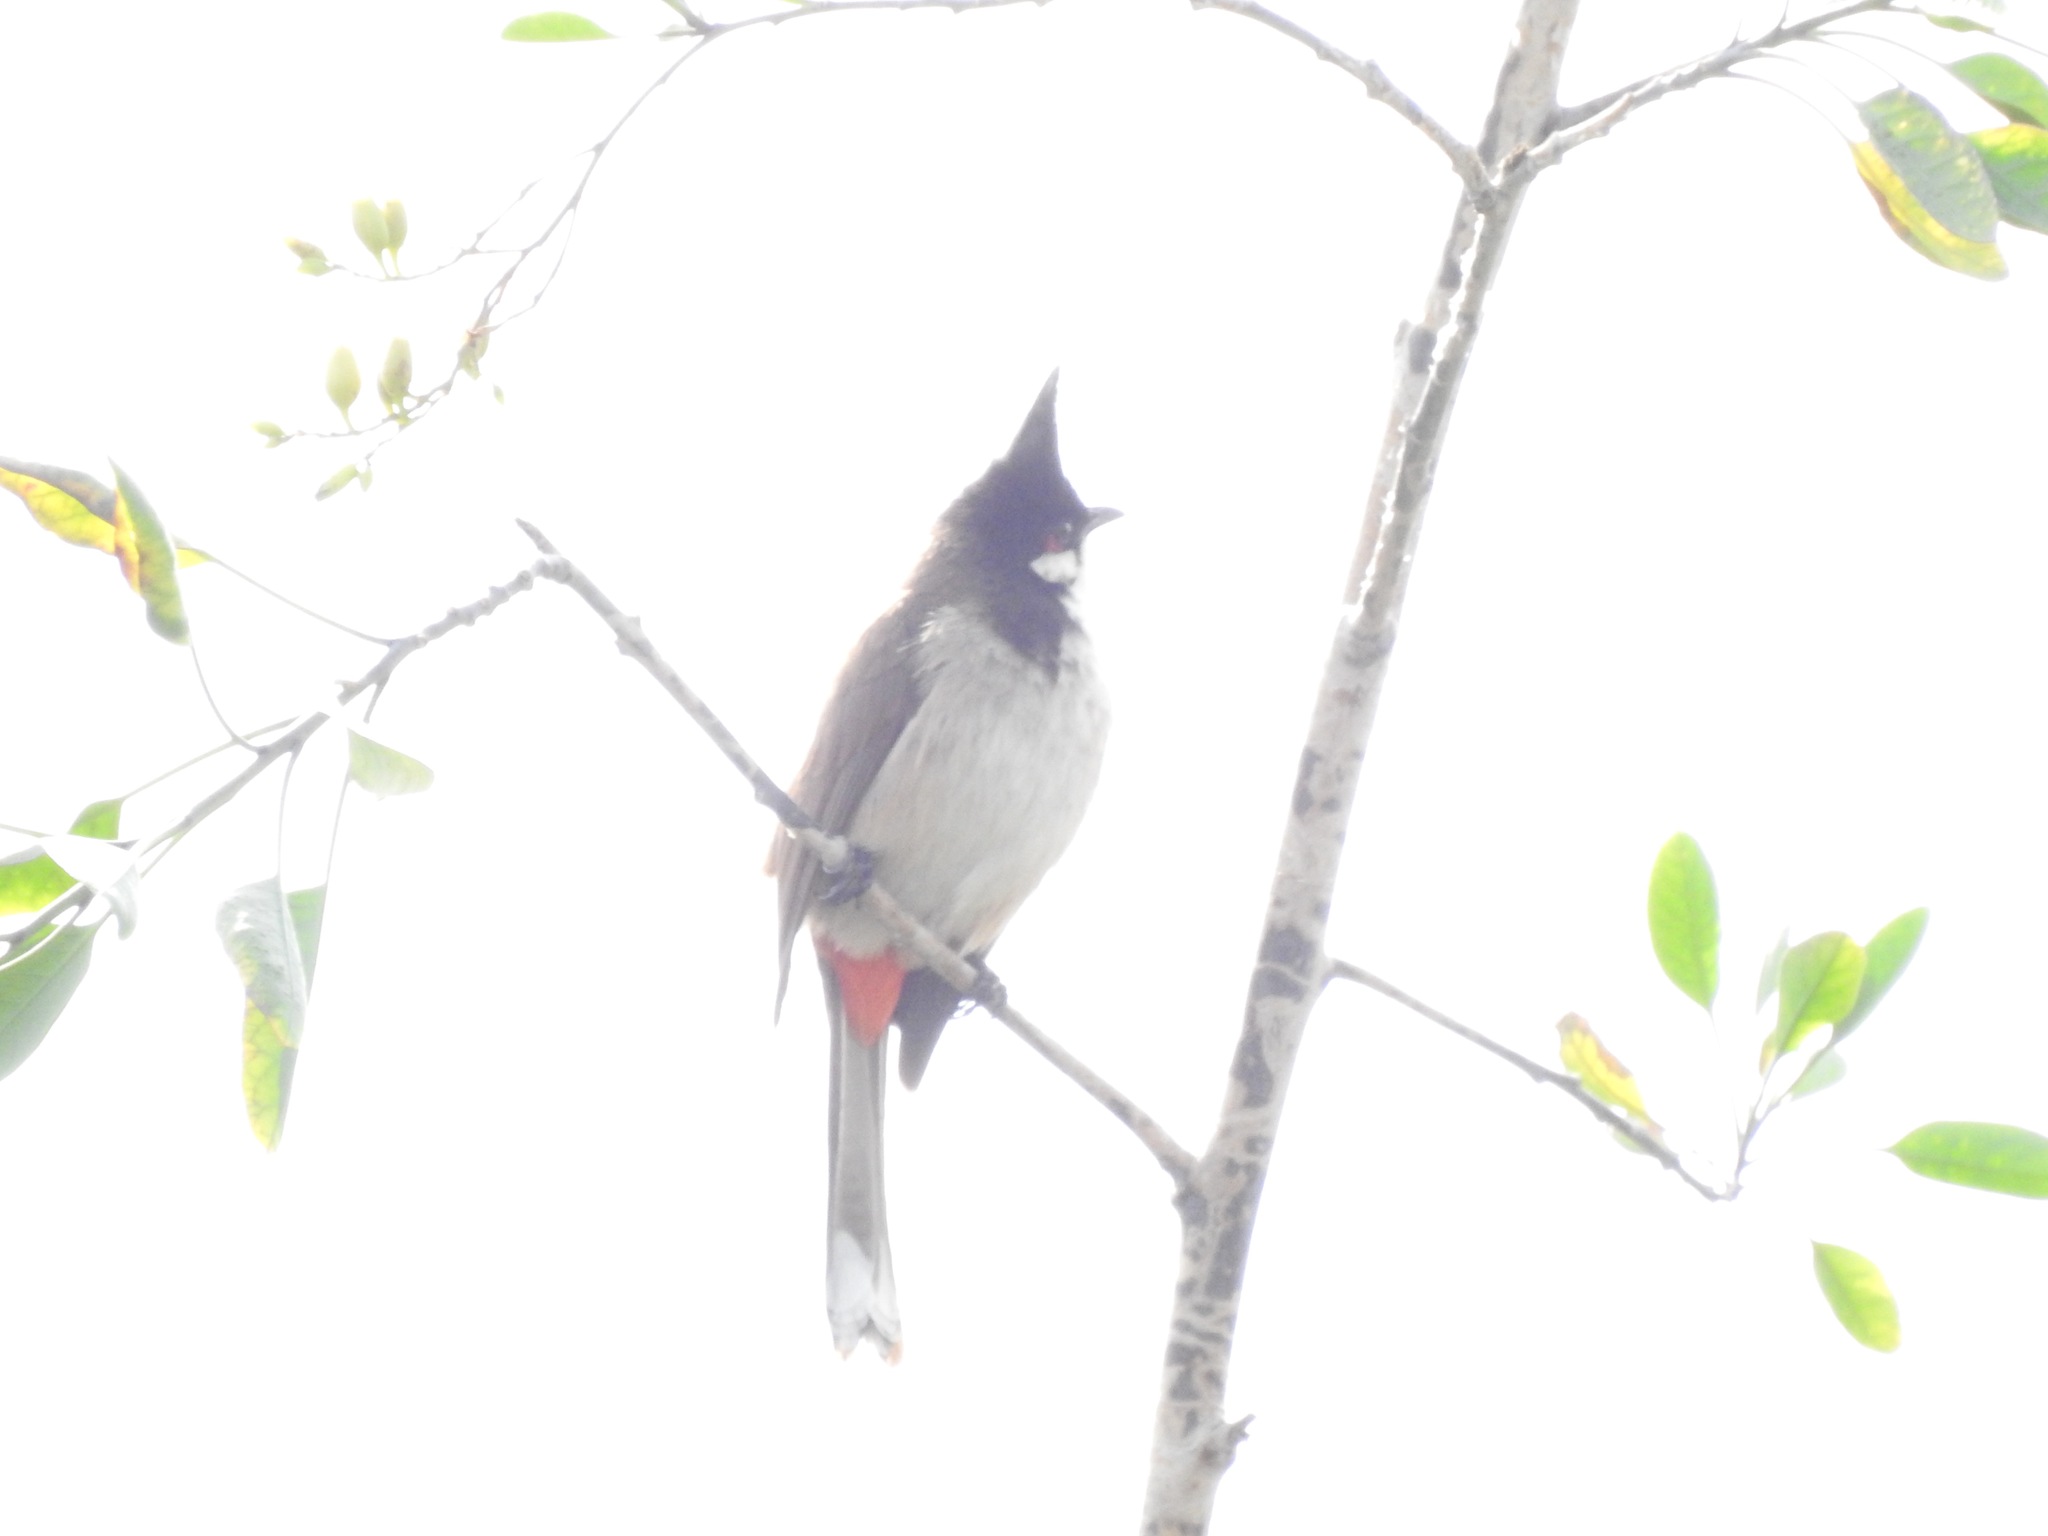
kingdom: Animalia
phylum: Chordata
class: Aves
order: Passeriformes
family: Pycnonotidae
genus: Pycnonotus
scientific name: Pycnonotus jocosus
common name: Red-whiskered bulbul
